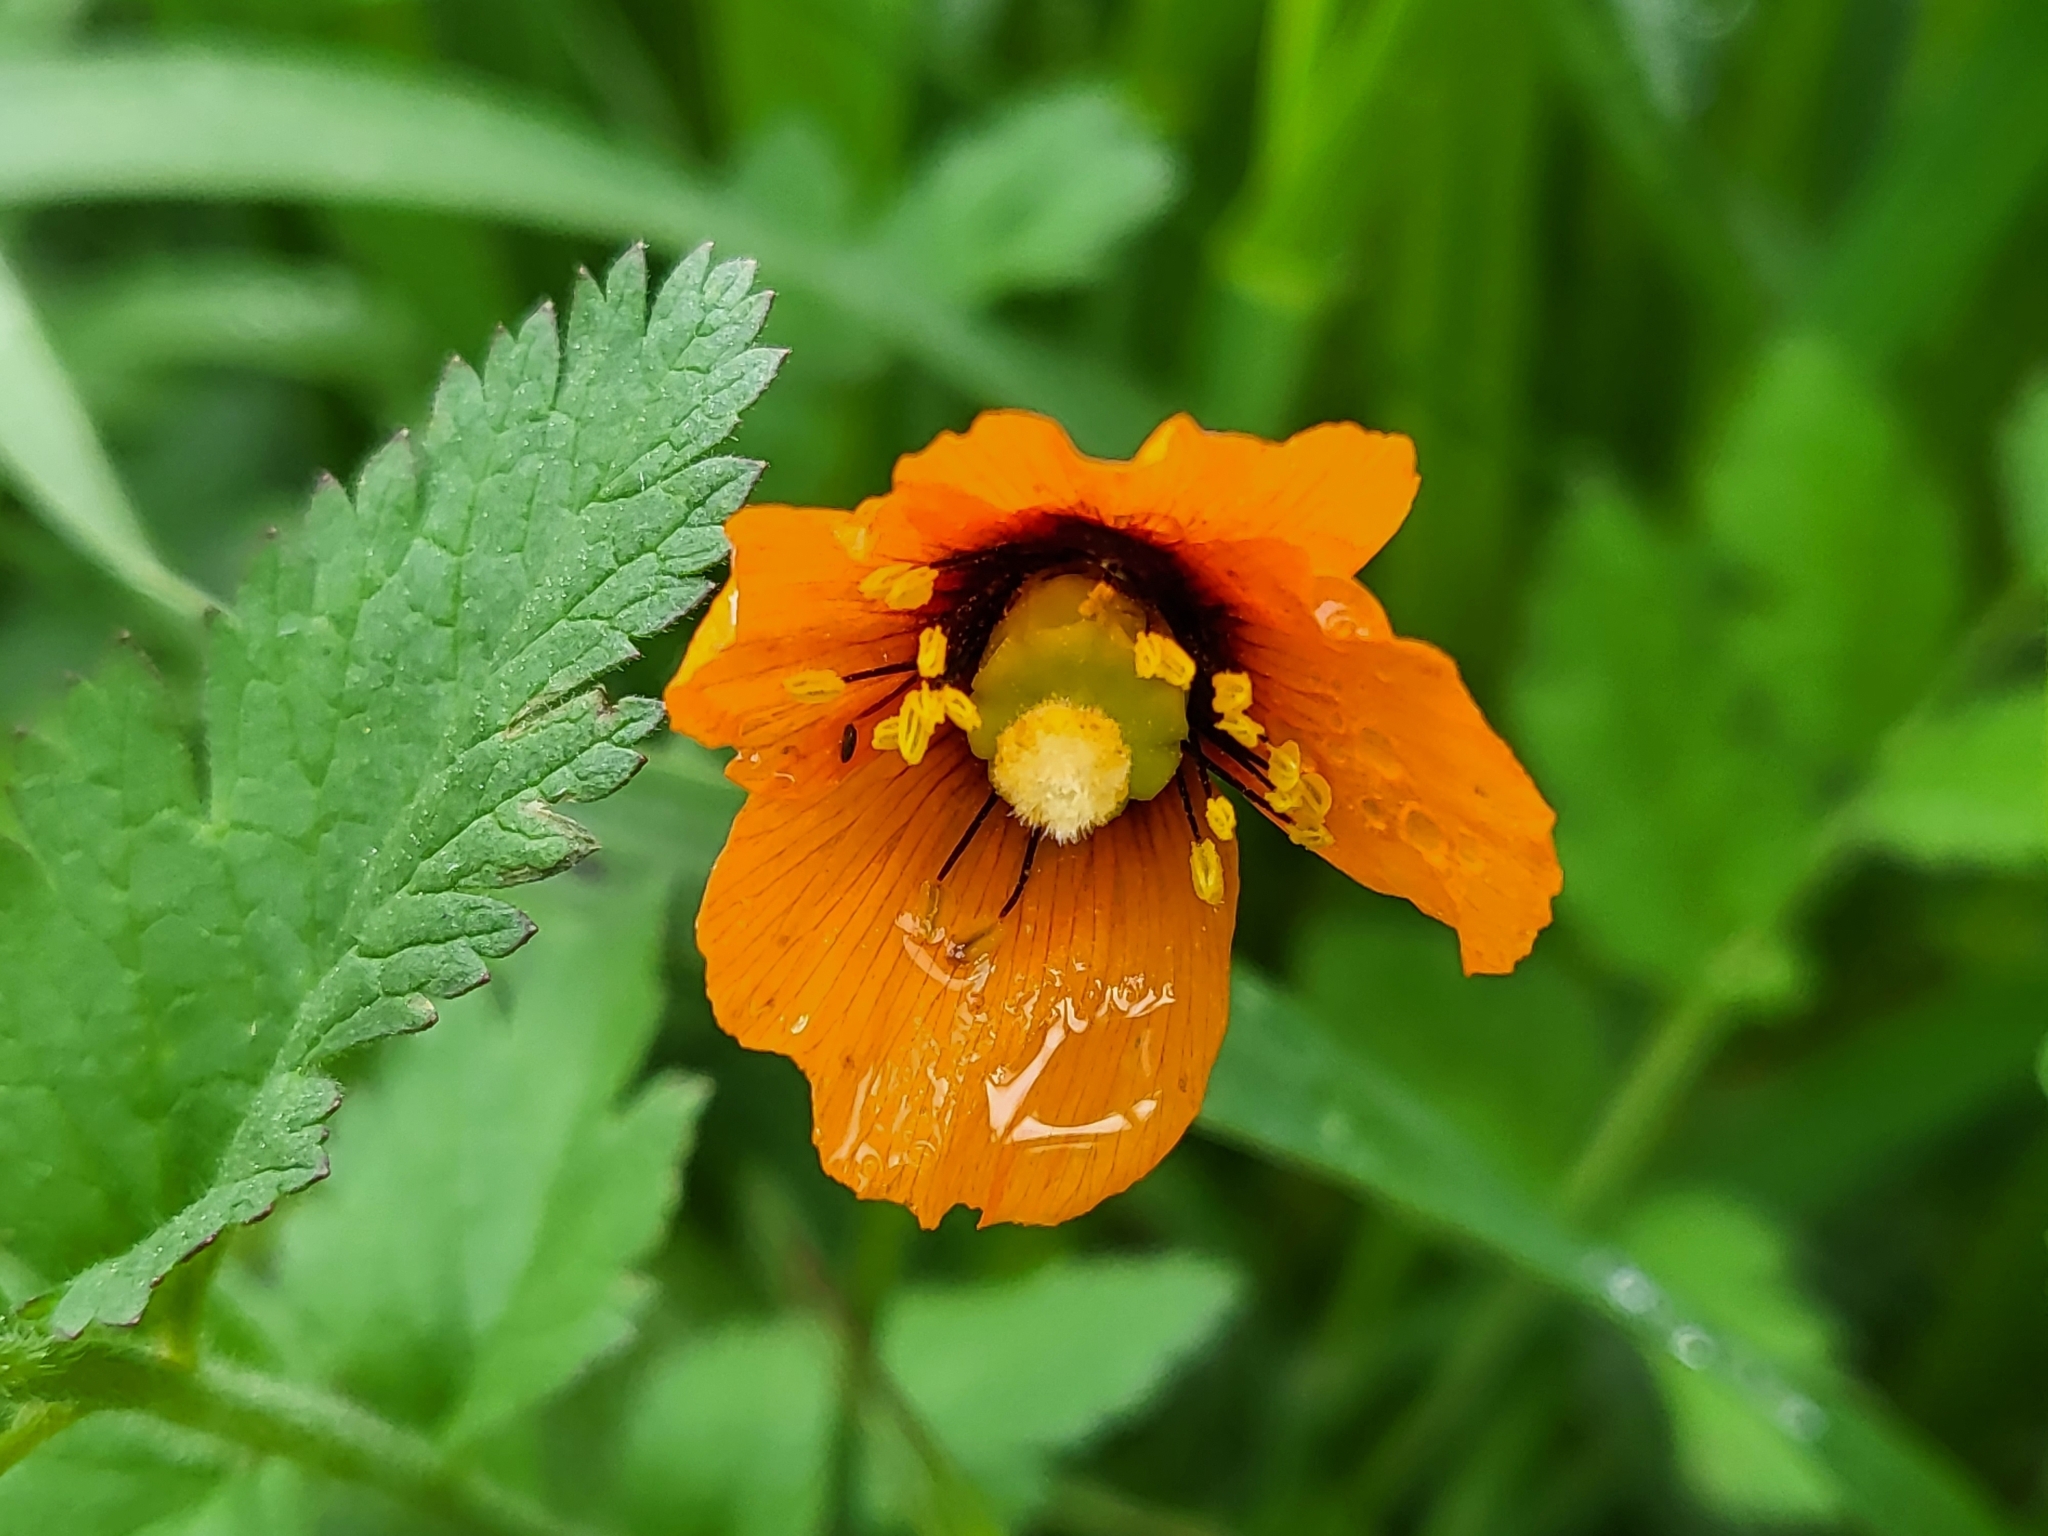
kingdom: Plantae
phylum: Tracheophyta
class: Magnoliopsida
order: Ranunculales
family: Papaveraceae
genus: Stylomecon
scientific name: Stylomecon heterophylla
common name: Flaming-poppy
